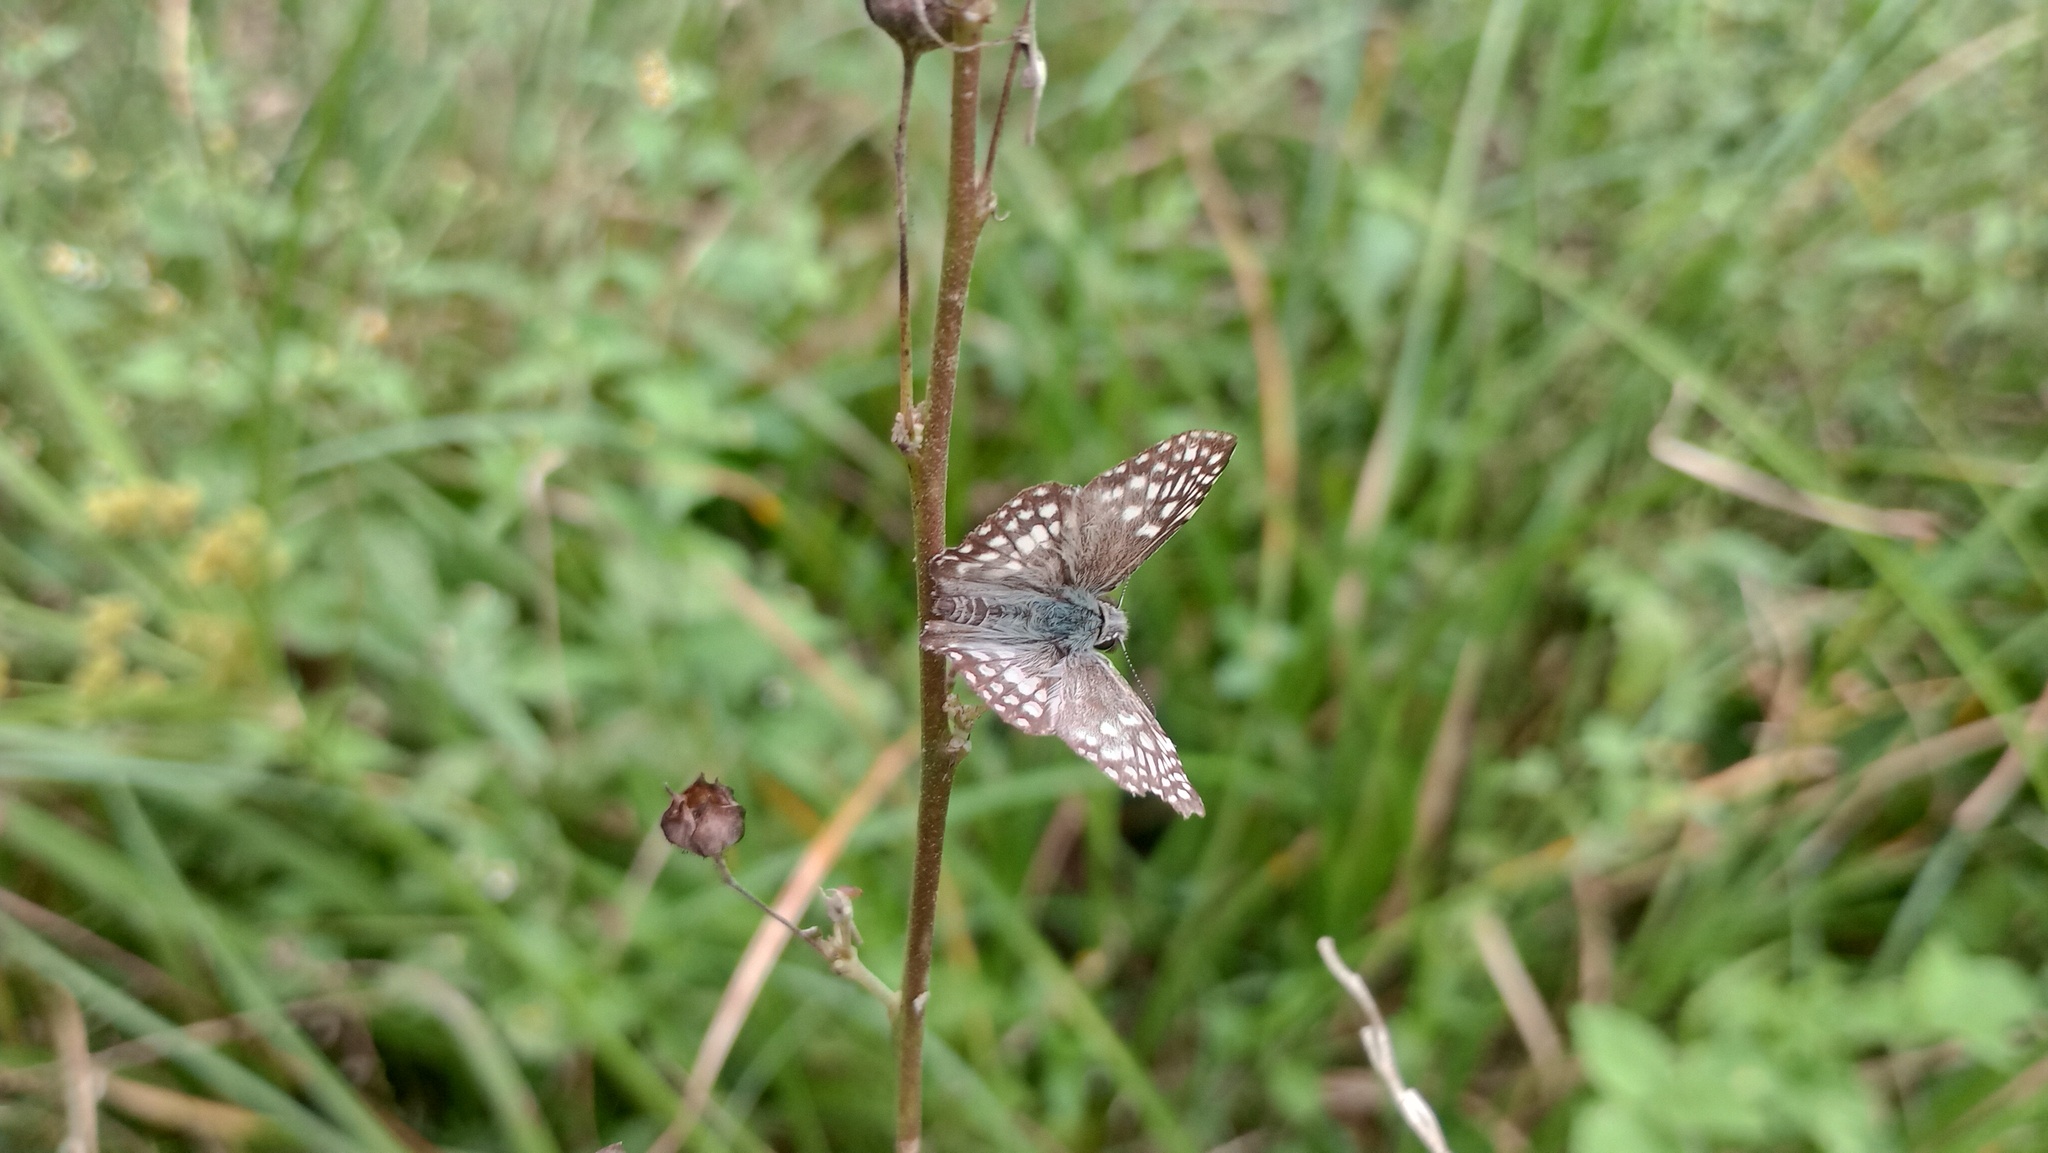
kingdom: Animalia
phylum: Arthropoda
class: Insecta
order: Lepidoptera
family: Hesperiidae
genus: Pyrgus
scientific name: Pyrgus oileus
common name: Tropical checkered-skipper
